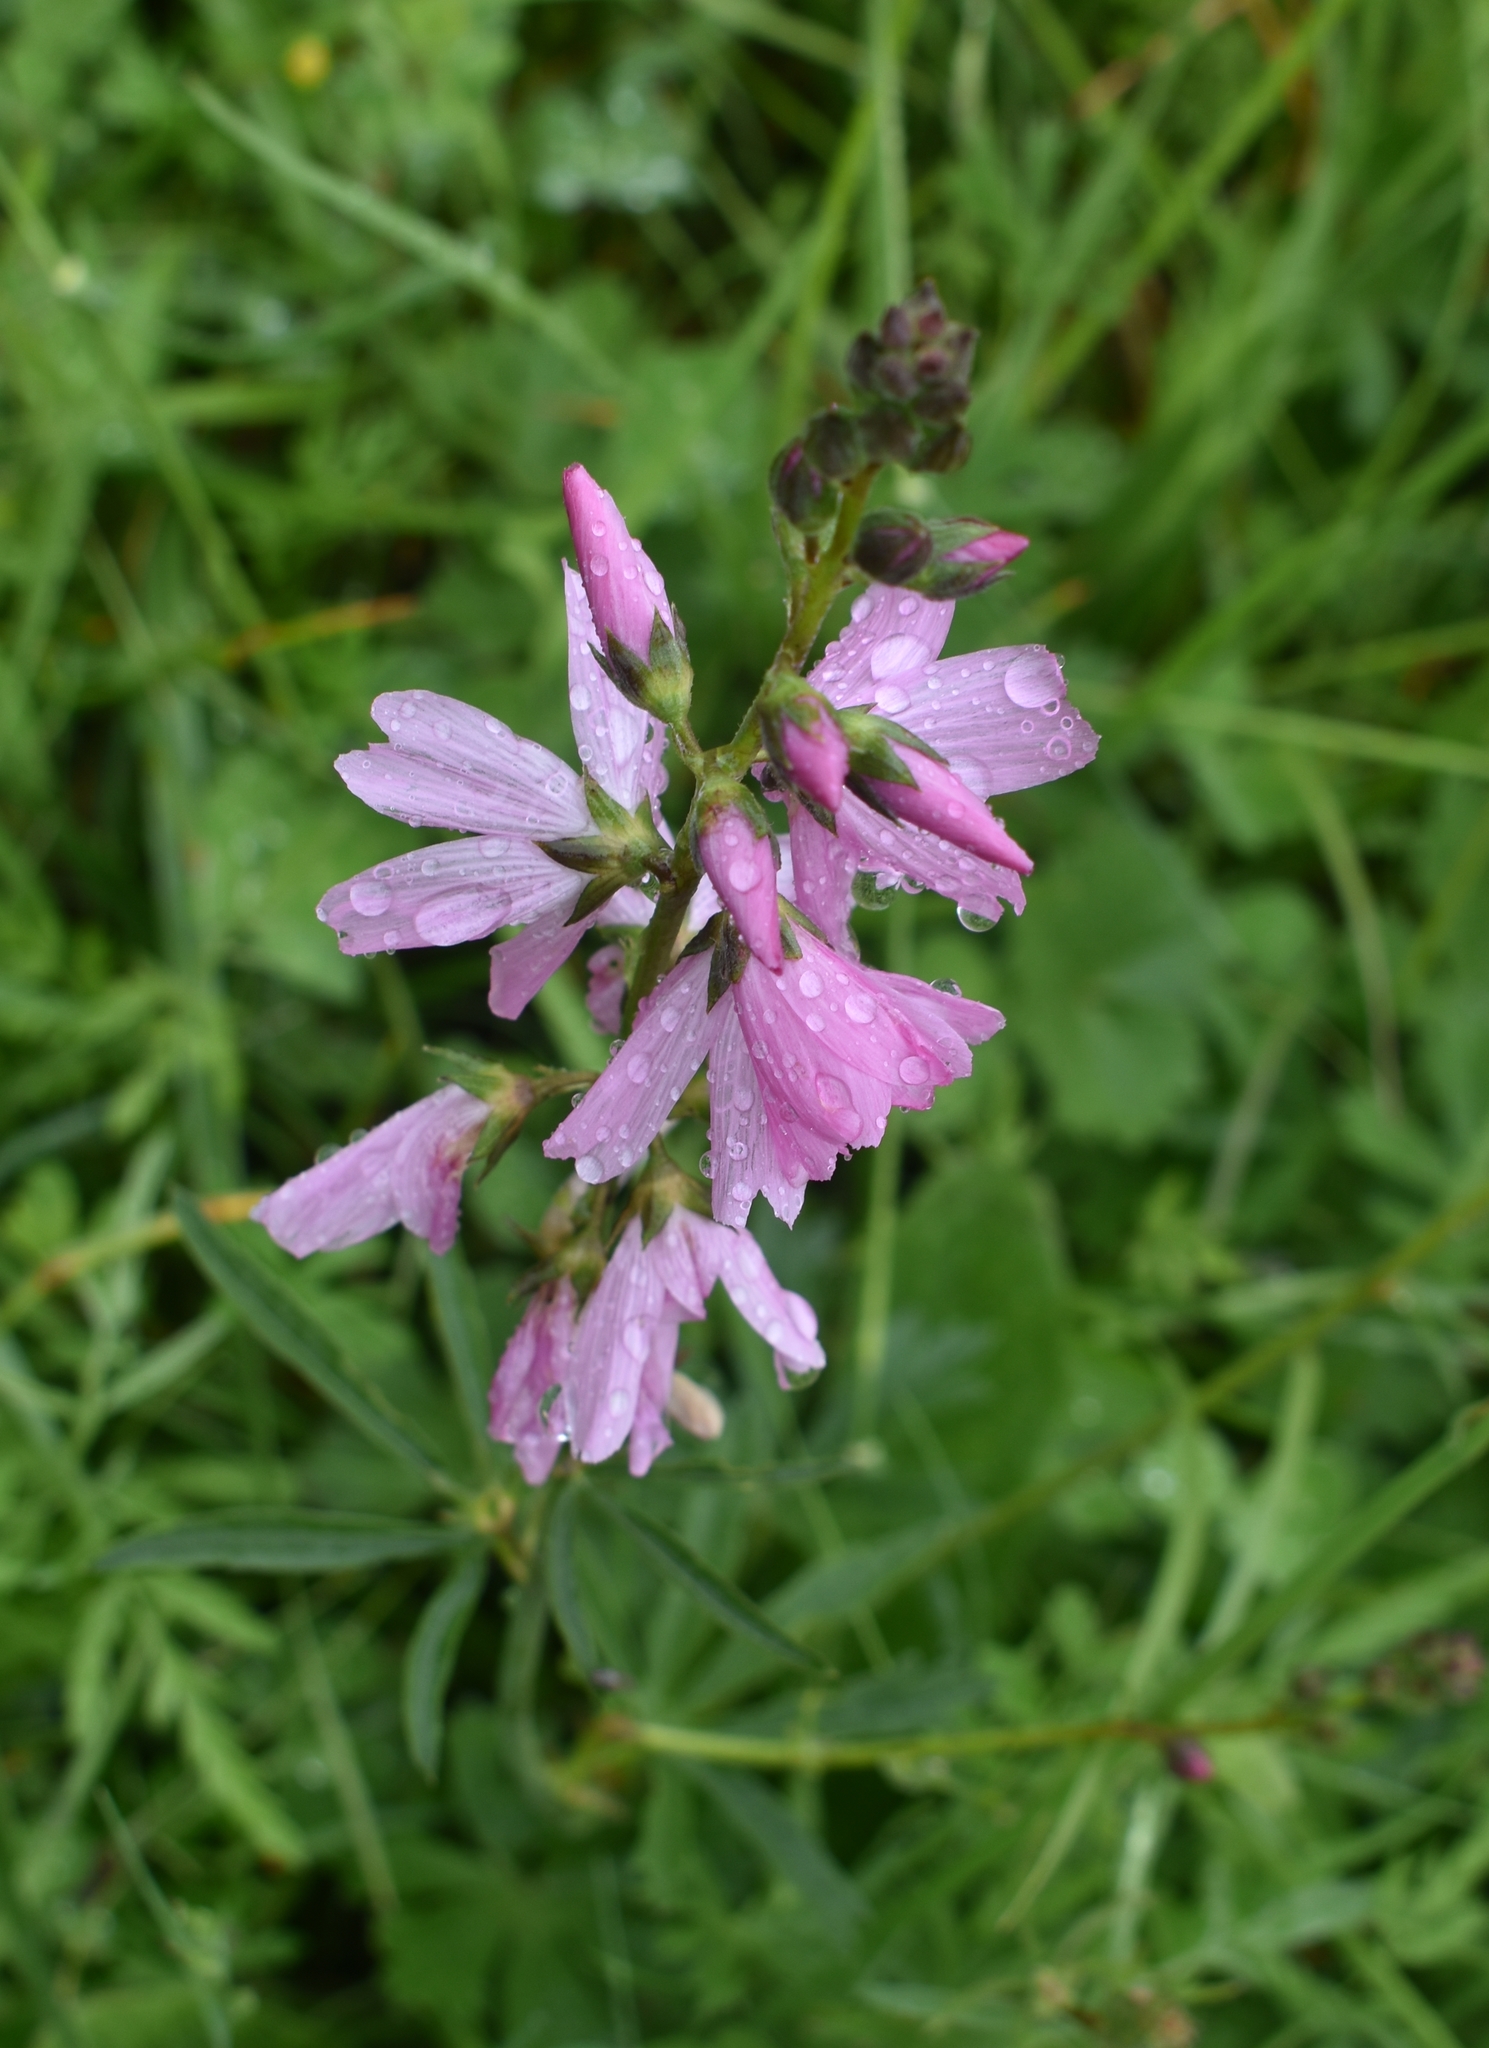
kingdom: Plantae
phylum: Tracheophyta
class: Magnoliopsida
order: Malvales
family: Malvaceae
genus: Sidalcea
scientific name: Sidalcea asprella
